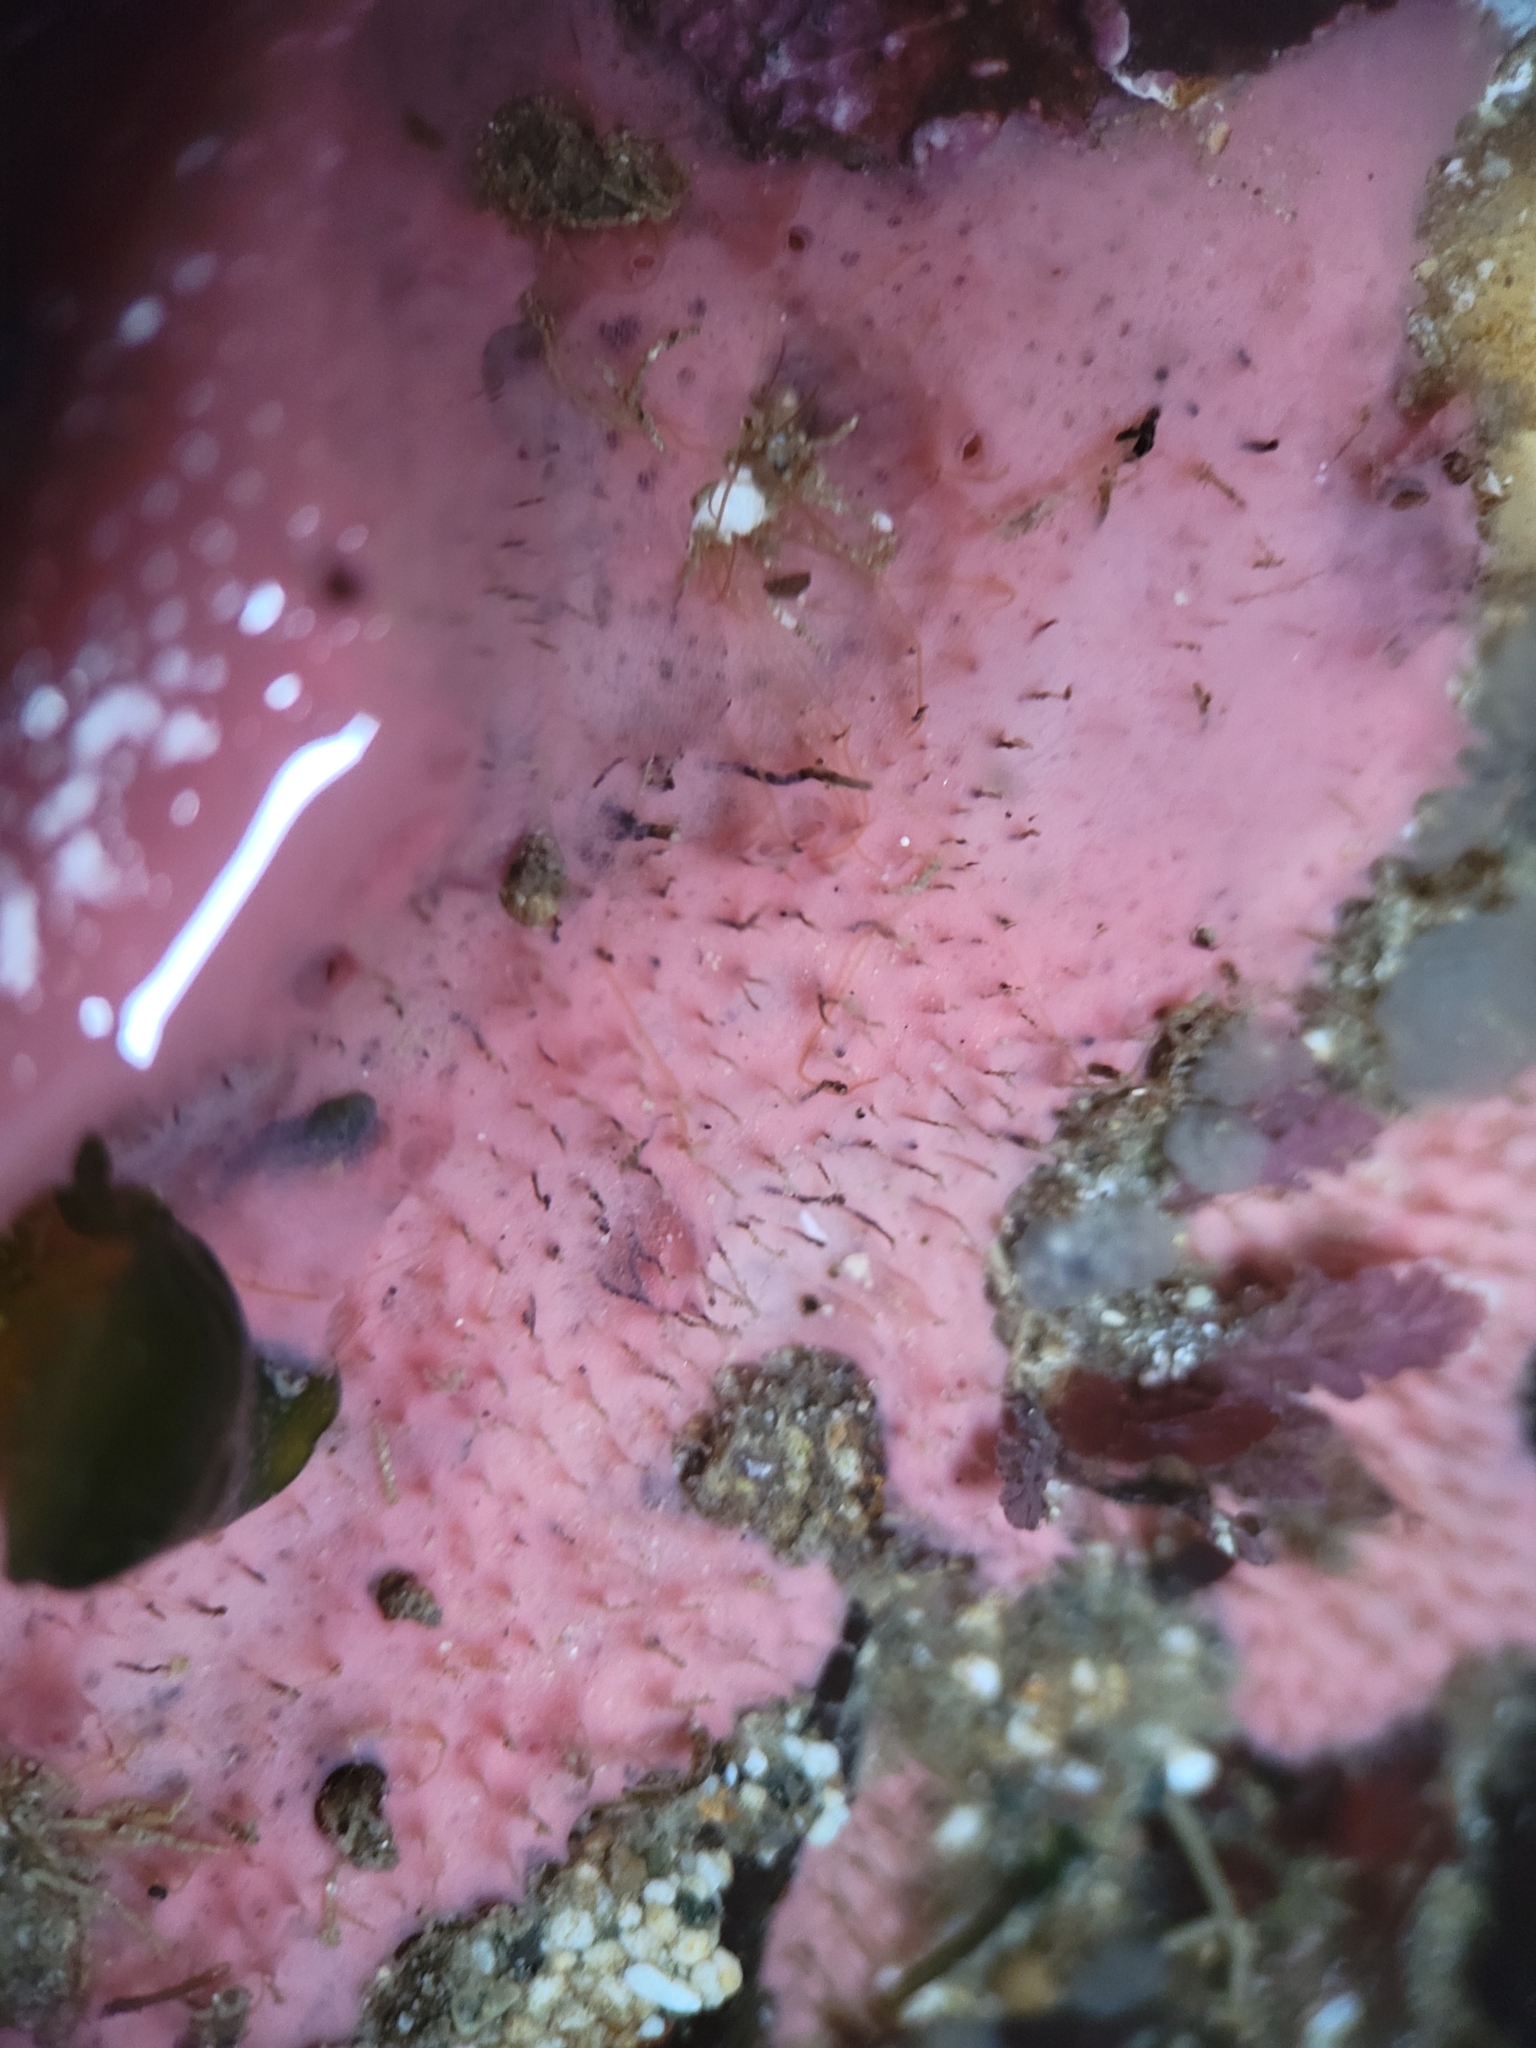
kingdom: Animalia
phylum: Porifera
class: Demospongiae
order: Dendroceratida
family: Darwinellidae
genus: Aplysilla
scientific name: Aplysilla glacialis
